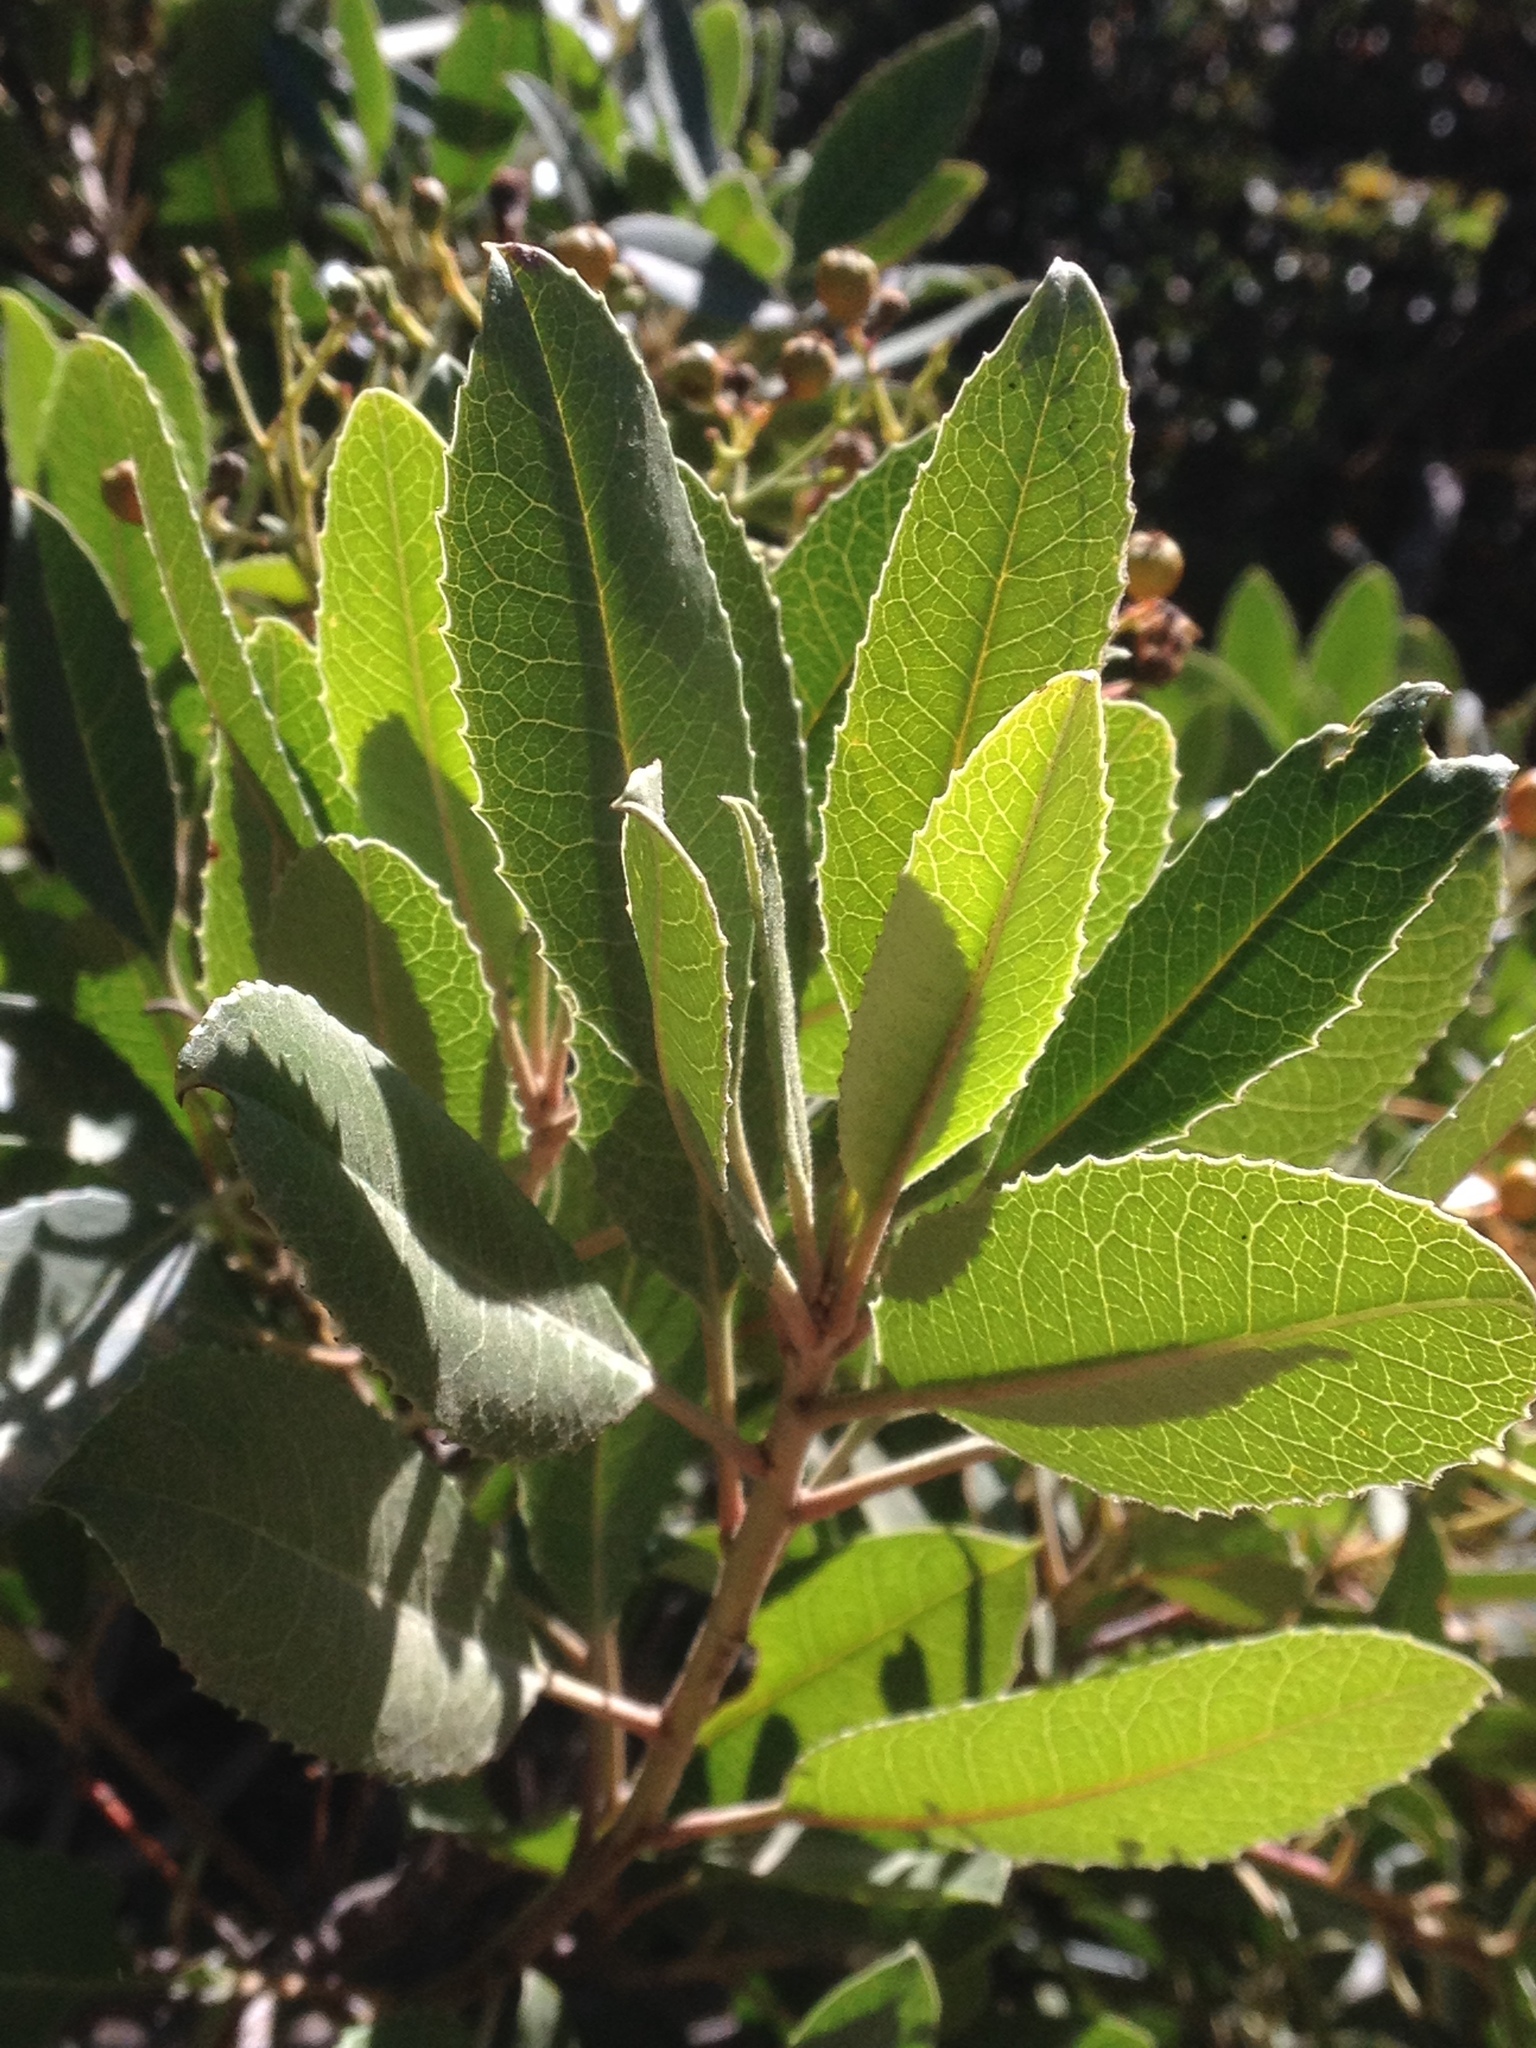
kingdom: Plantae
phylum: Tracheophyta
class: Magnoliopsida
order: Rosales
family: Rosaceae
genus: Heteromeles
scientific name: Heteromeles arbutifolia
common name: California-holly
